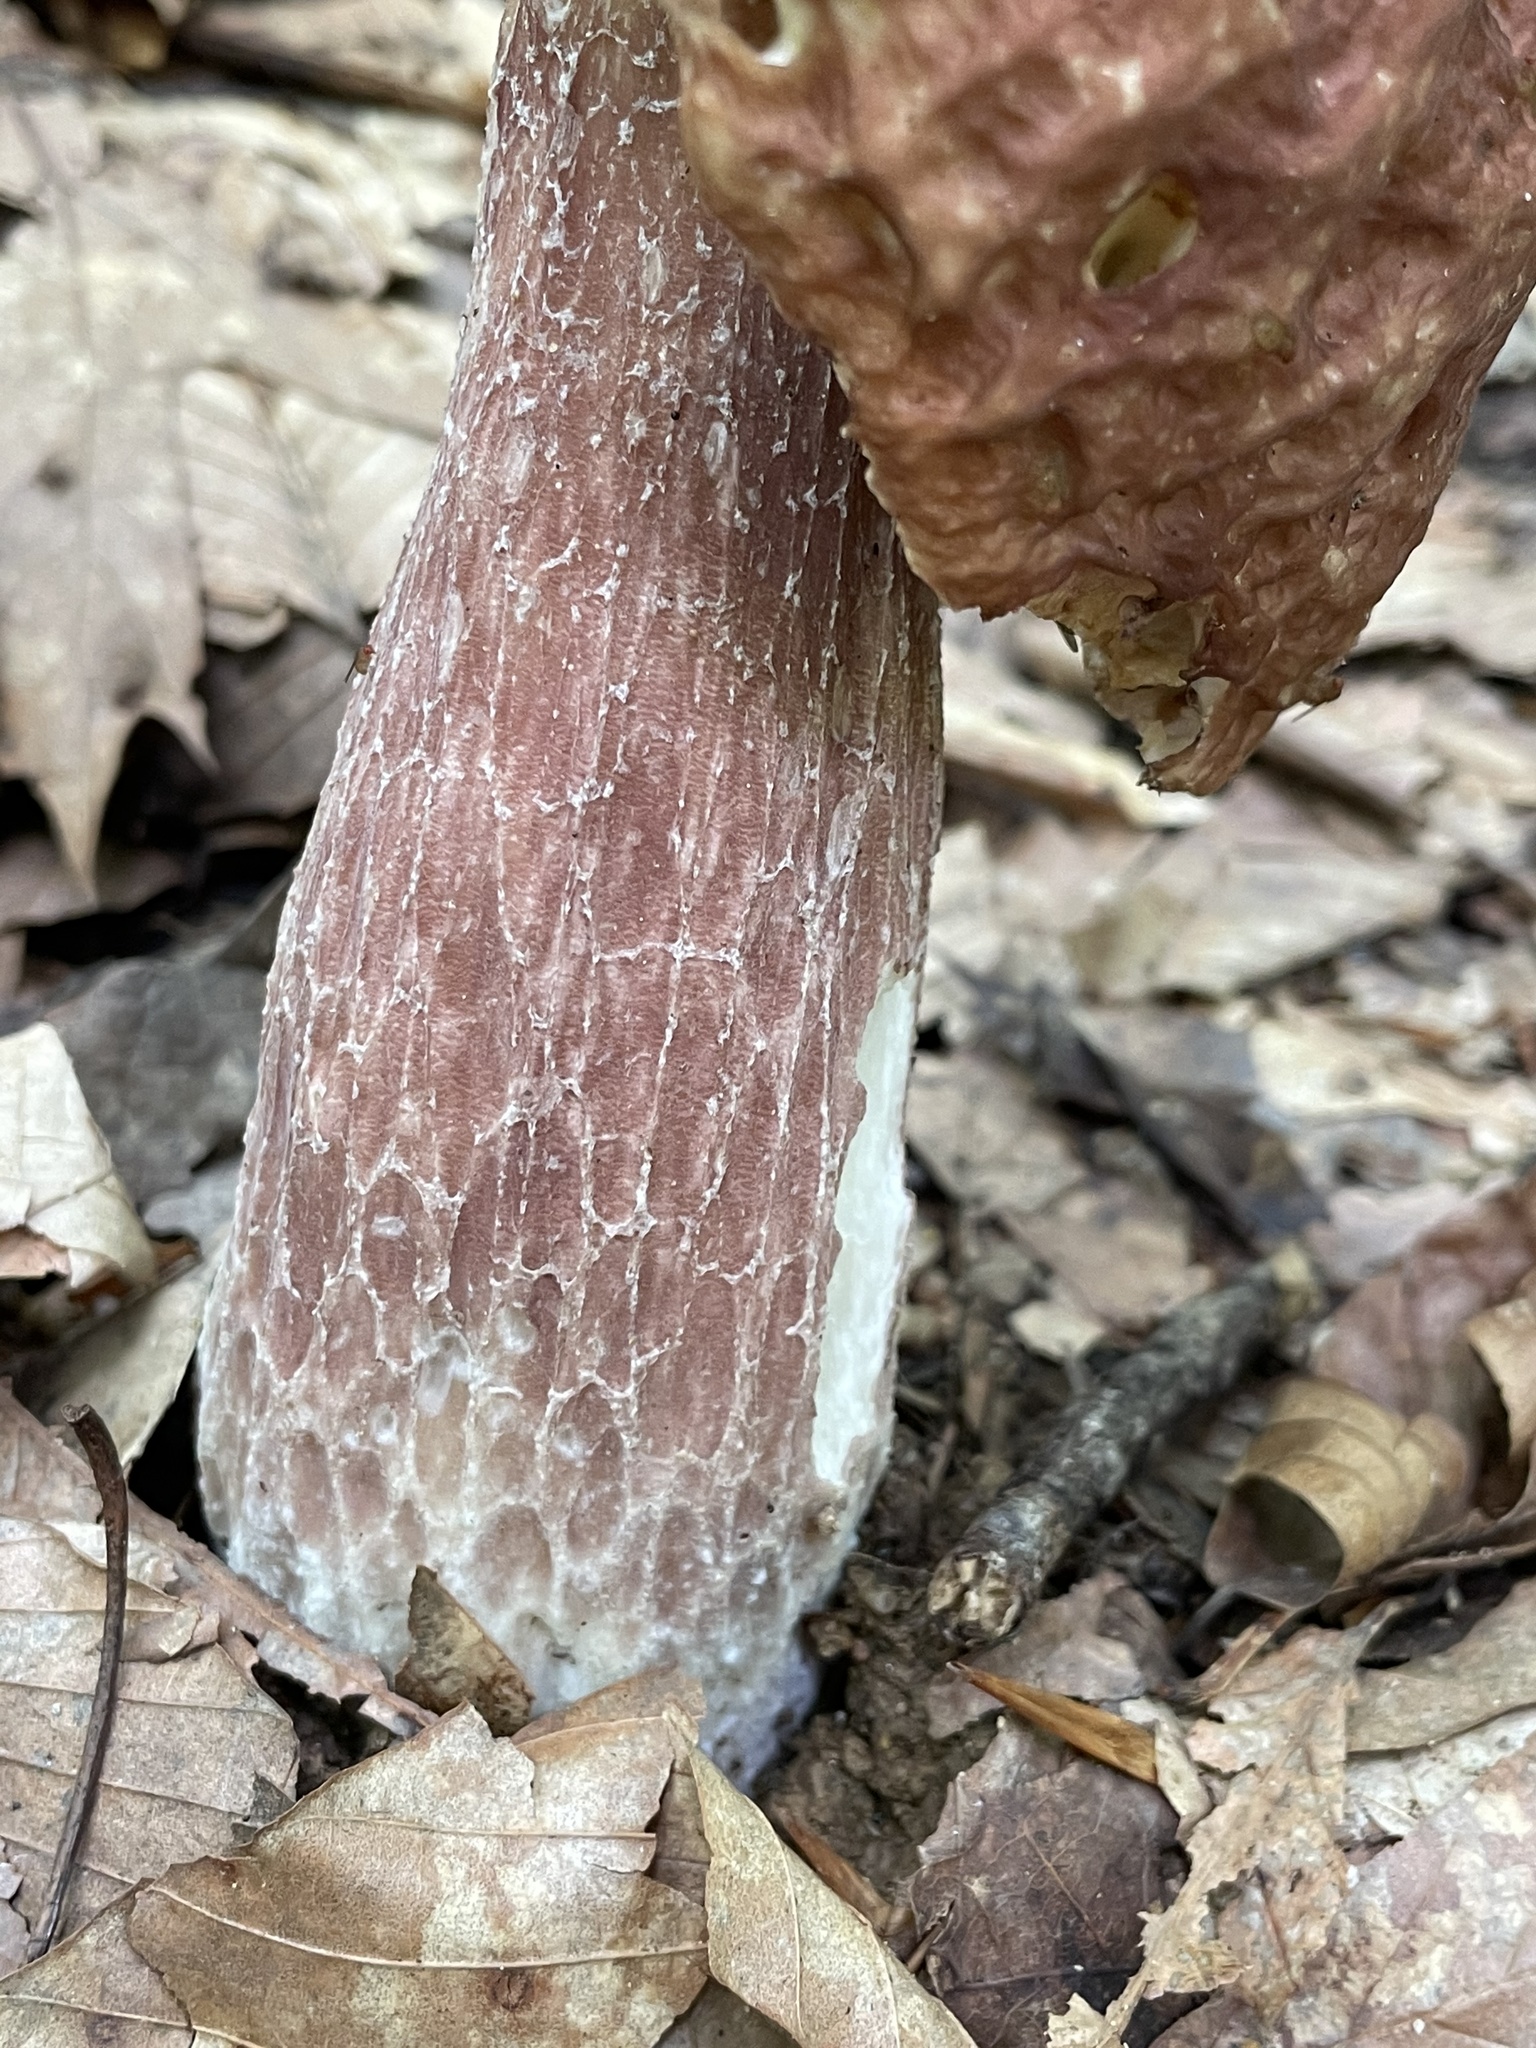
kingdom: Fungi
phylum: Basidiomycota
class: Agaricomycetes
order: Boletales
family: Boletaceae
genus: Xanthoconium
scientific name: Xanthoconium separans
